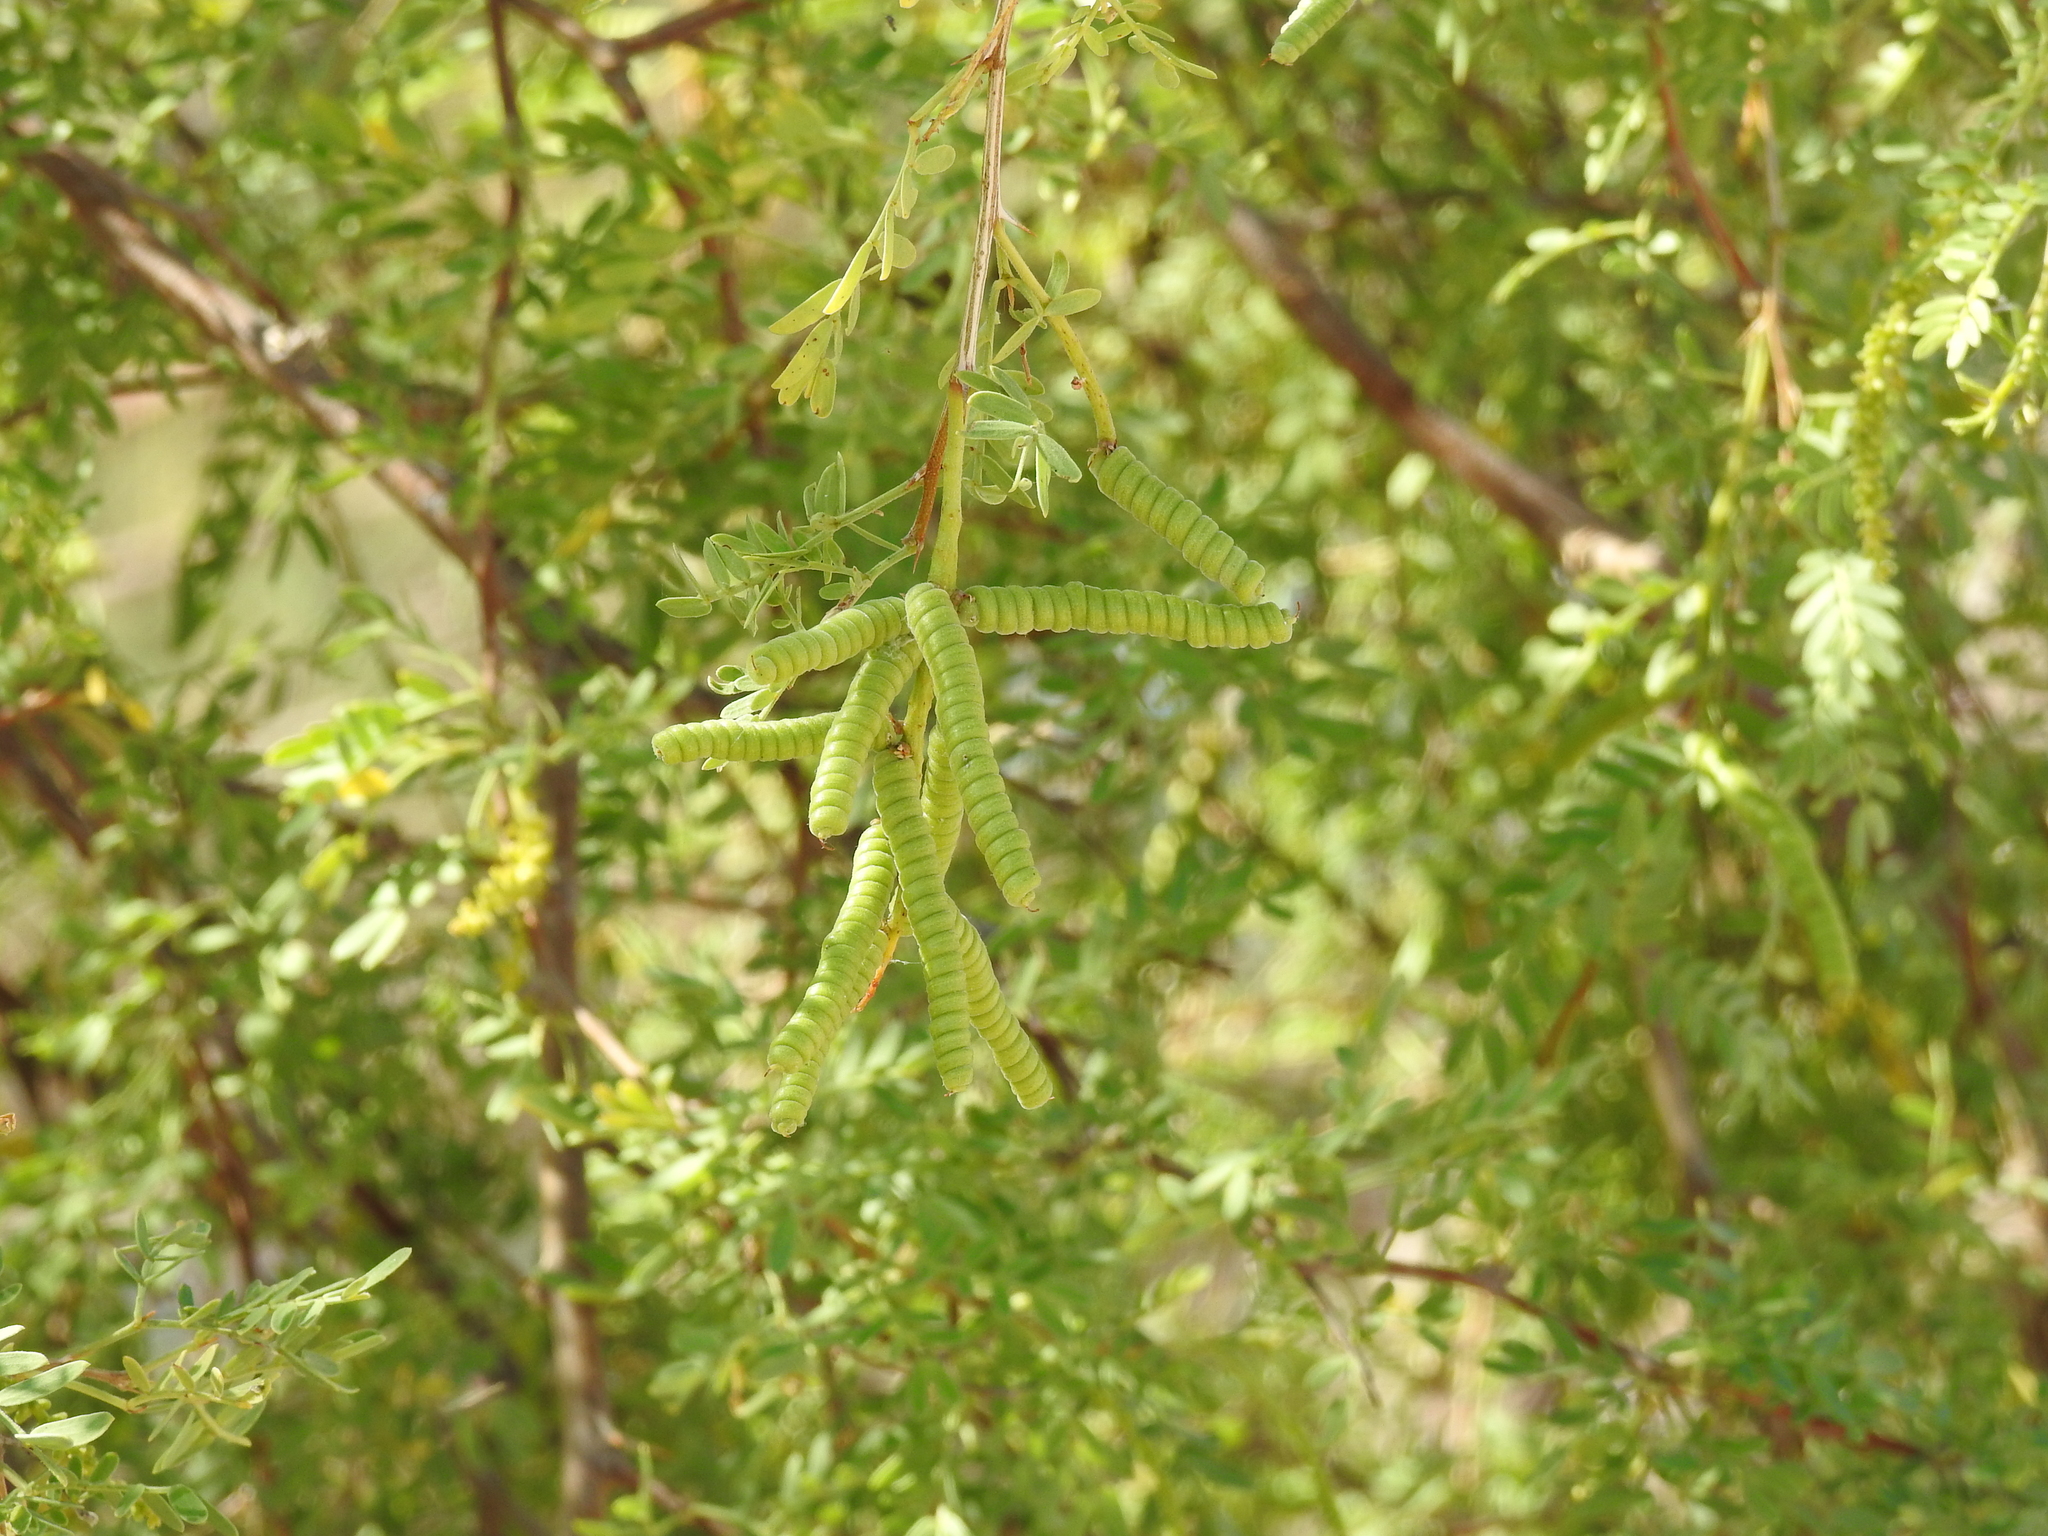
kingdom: Plantae
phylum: Tracheophyta
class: Magnoliopsida
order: Fabales
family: Fabaceae
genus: Prosopis
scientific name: Prosopis pubescens
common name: Screw-bean
